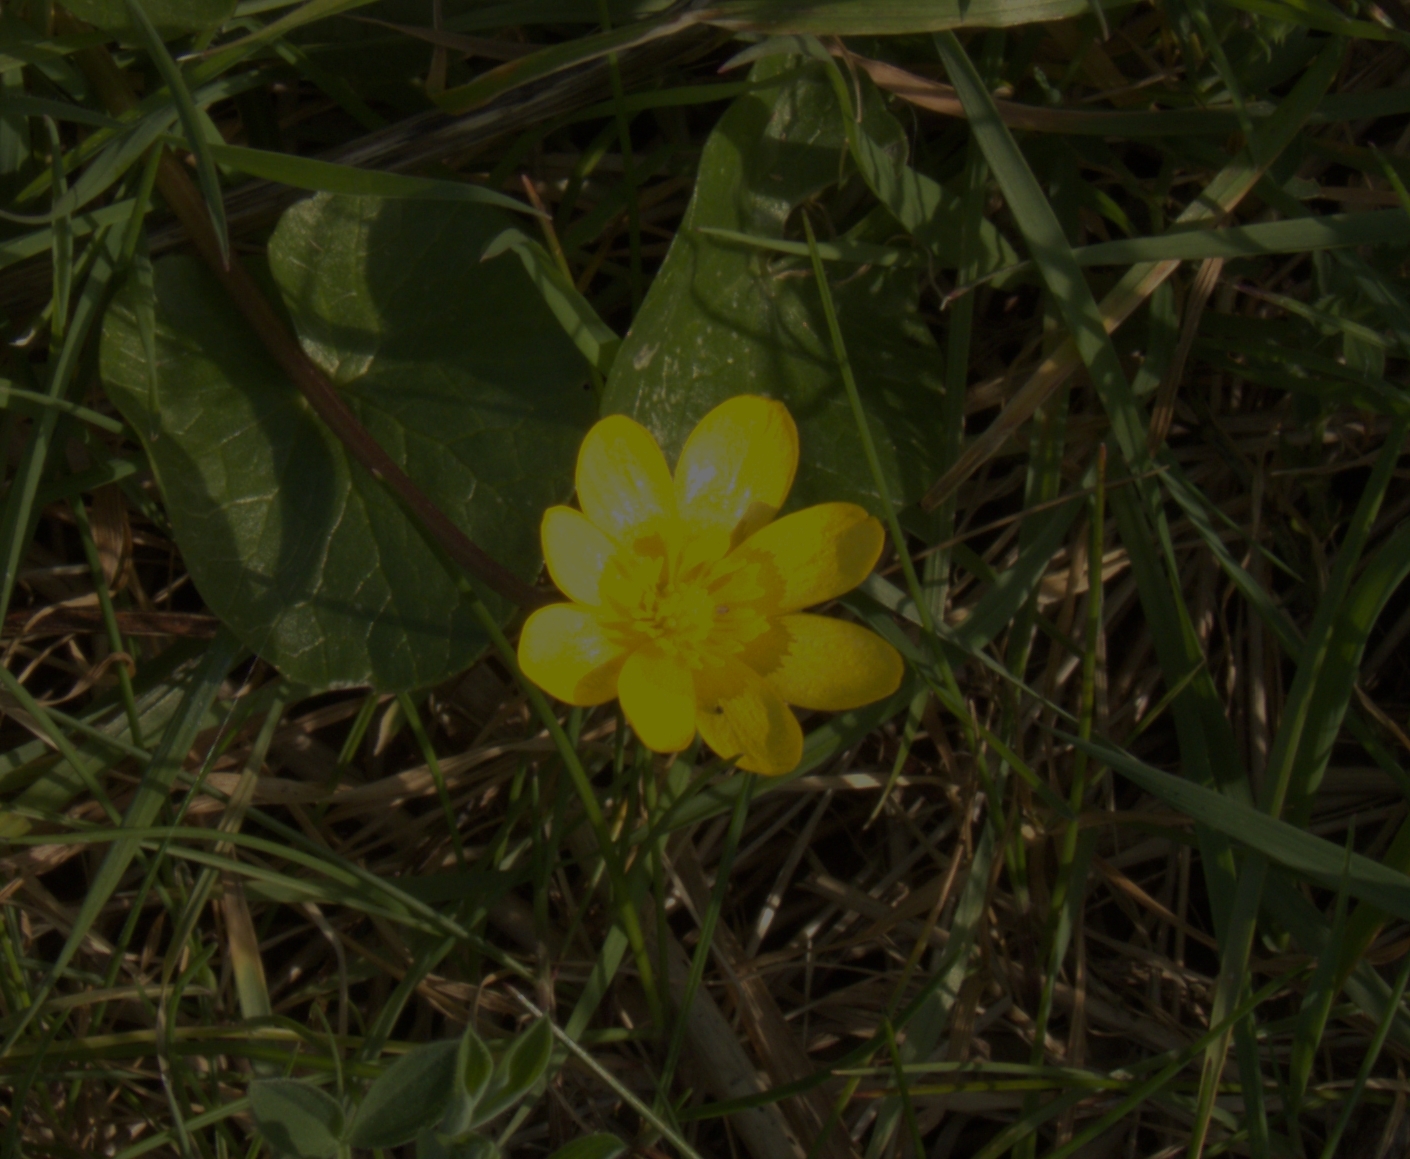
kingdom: Plantae
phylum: Tracheophyta
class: Magnoliopsida
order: Ranunculales
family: Ranunculaceae
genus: Ficaria
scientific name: Ficaria verna
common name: Lesser celandine
